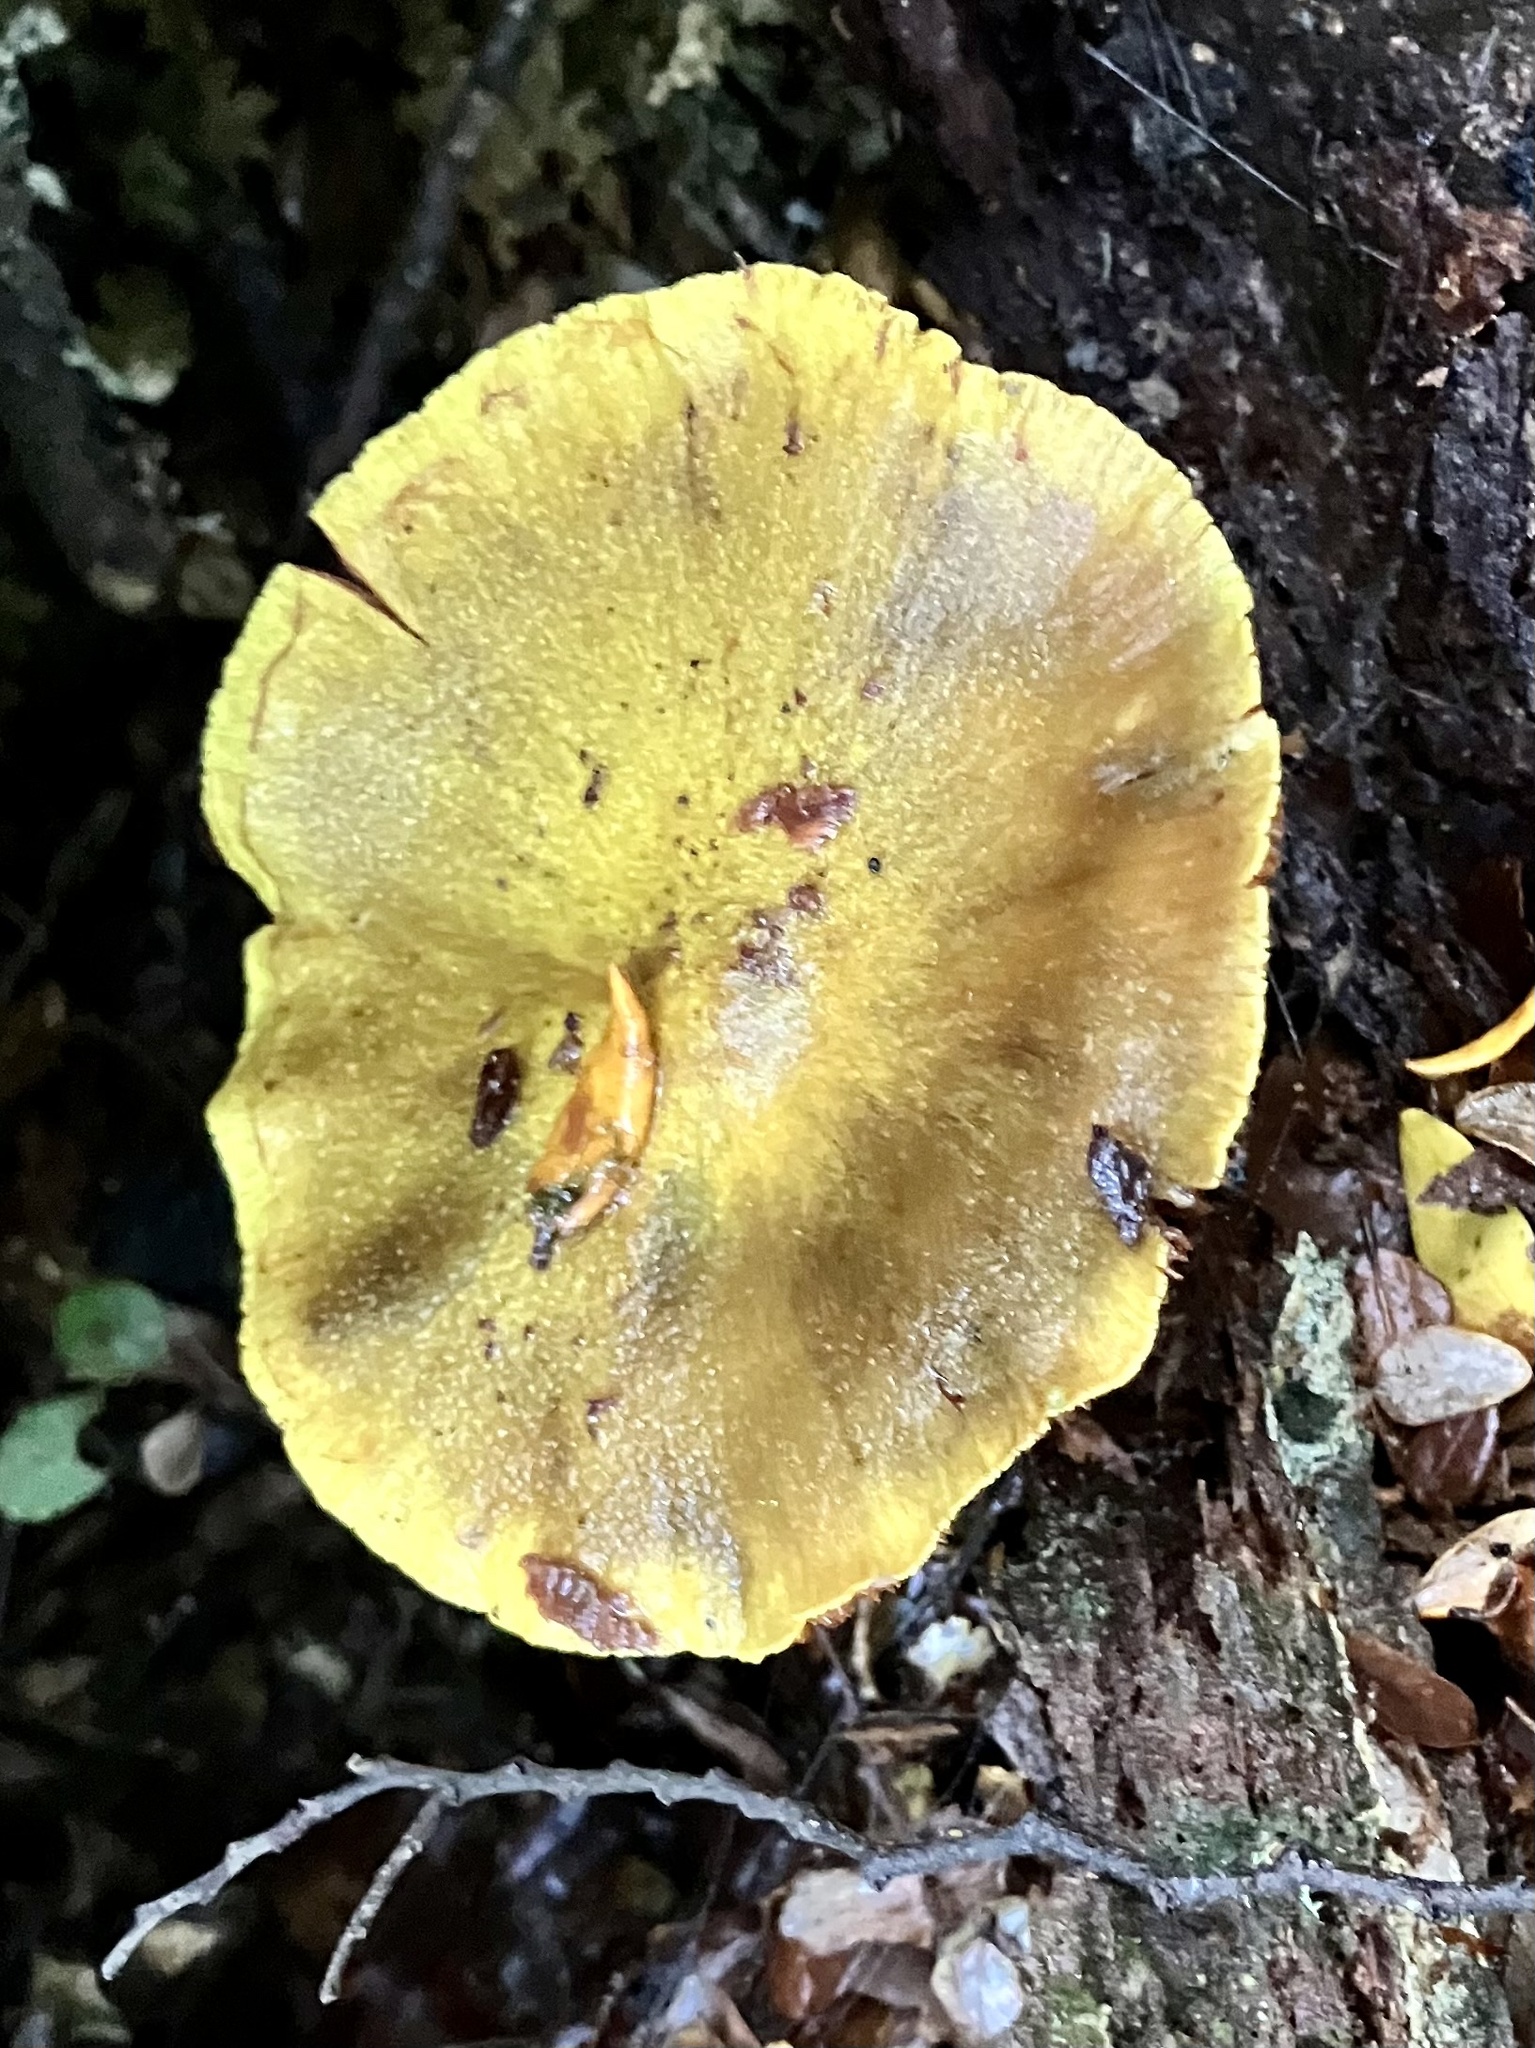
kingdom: Fungi
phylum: Basidiomycota
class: Agaricomycetes
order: Agaricales
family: Cortinariaceae
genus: Cortinarius
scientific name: Cortinarius canarius
